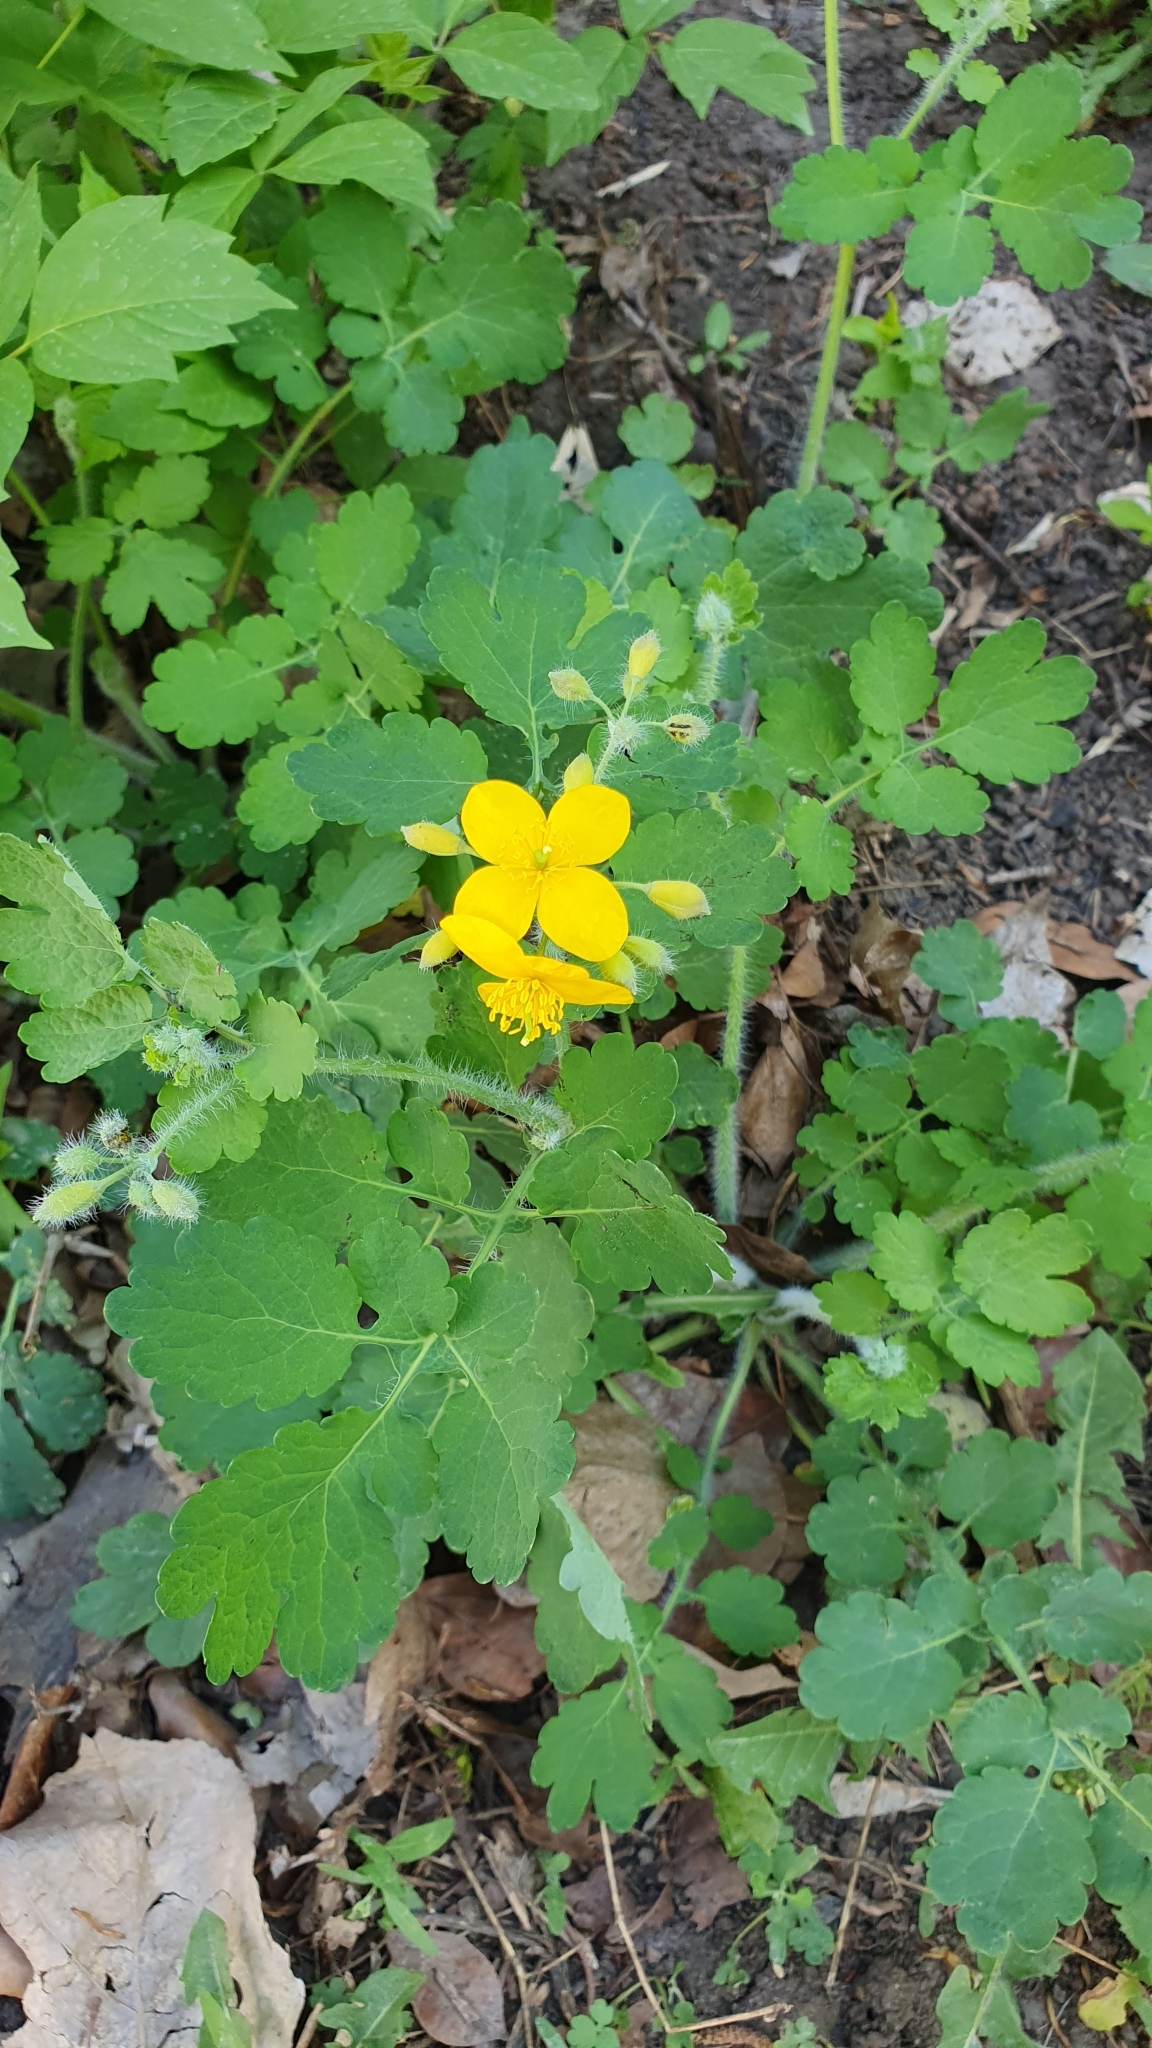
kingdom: Plantae
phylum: Tracheophyta
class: Magnoliopsida
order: Ranunculales
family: Papaveraceae
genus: Chelidonium
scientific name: Chelidonium majus
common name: Greater celandine
